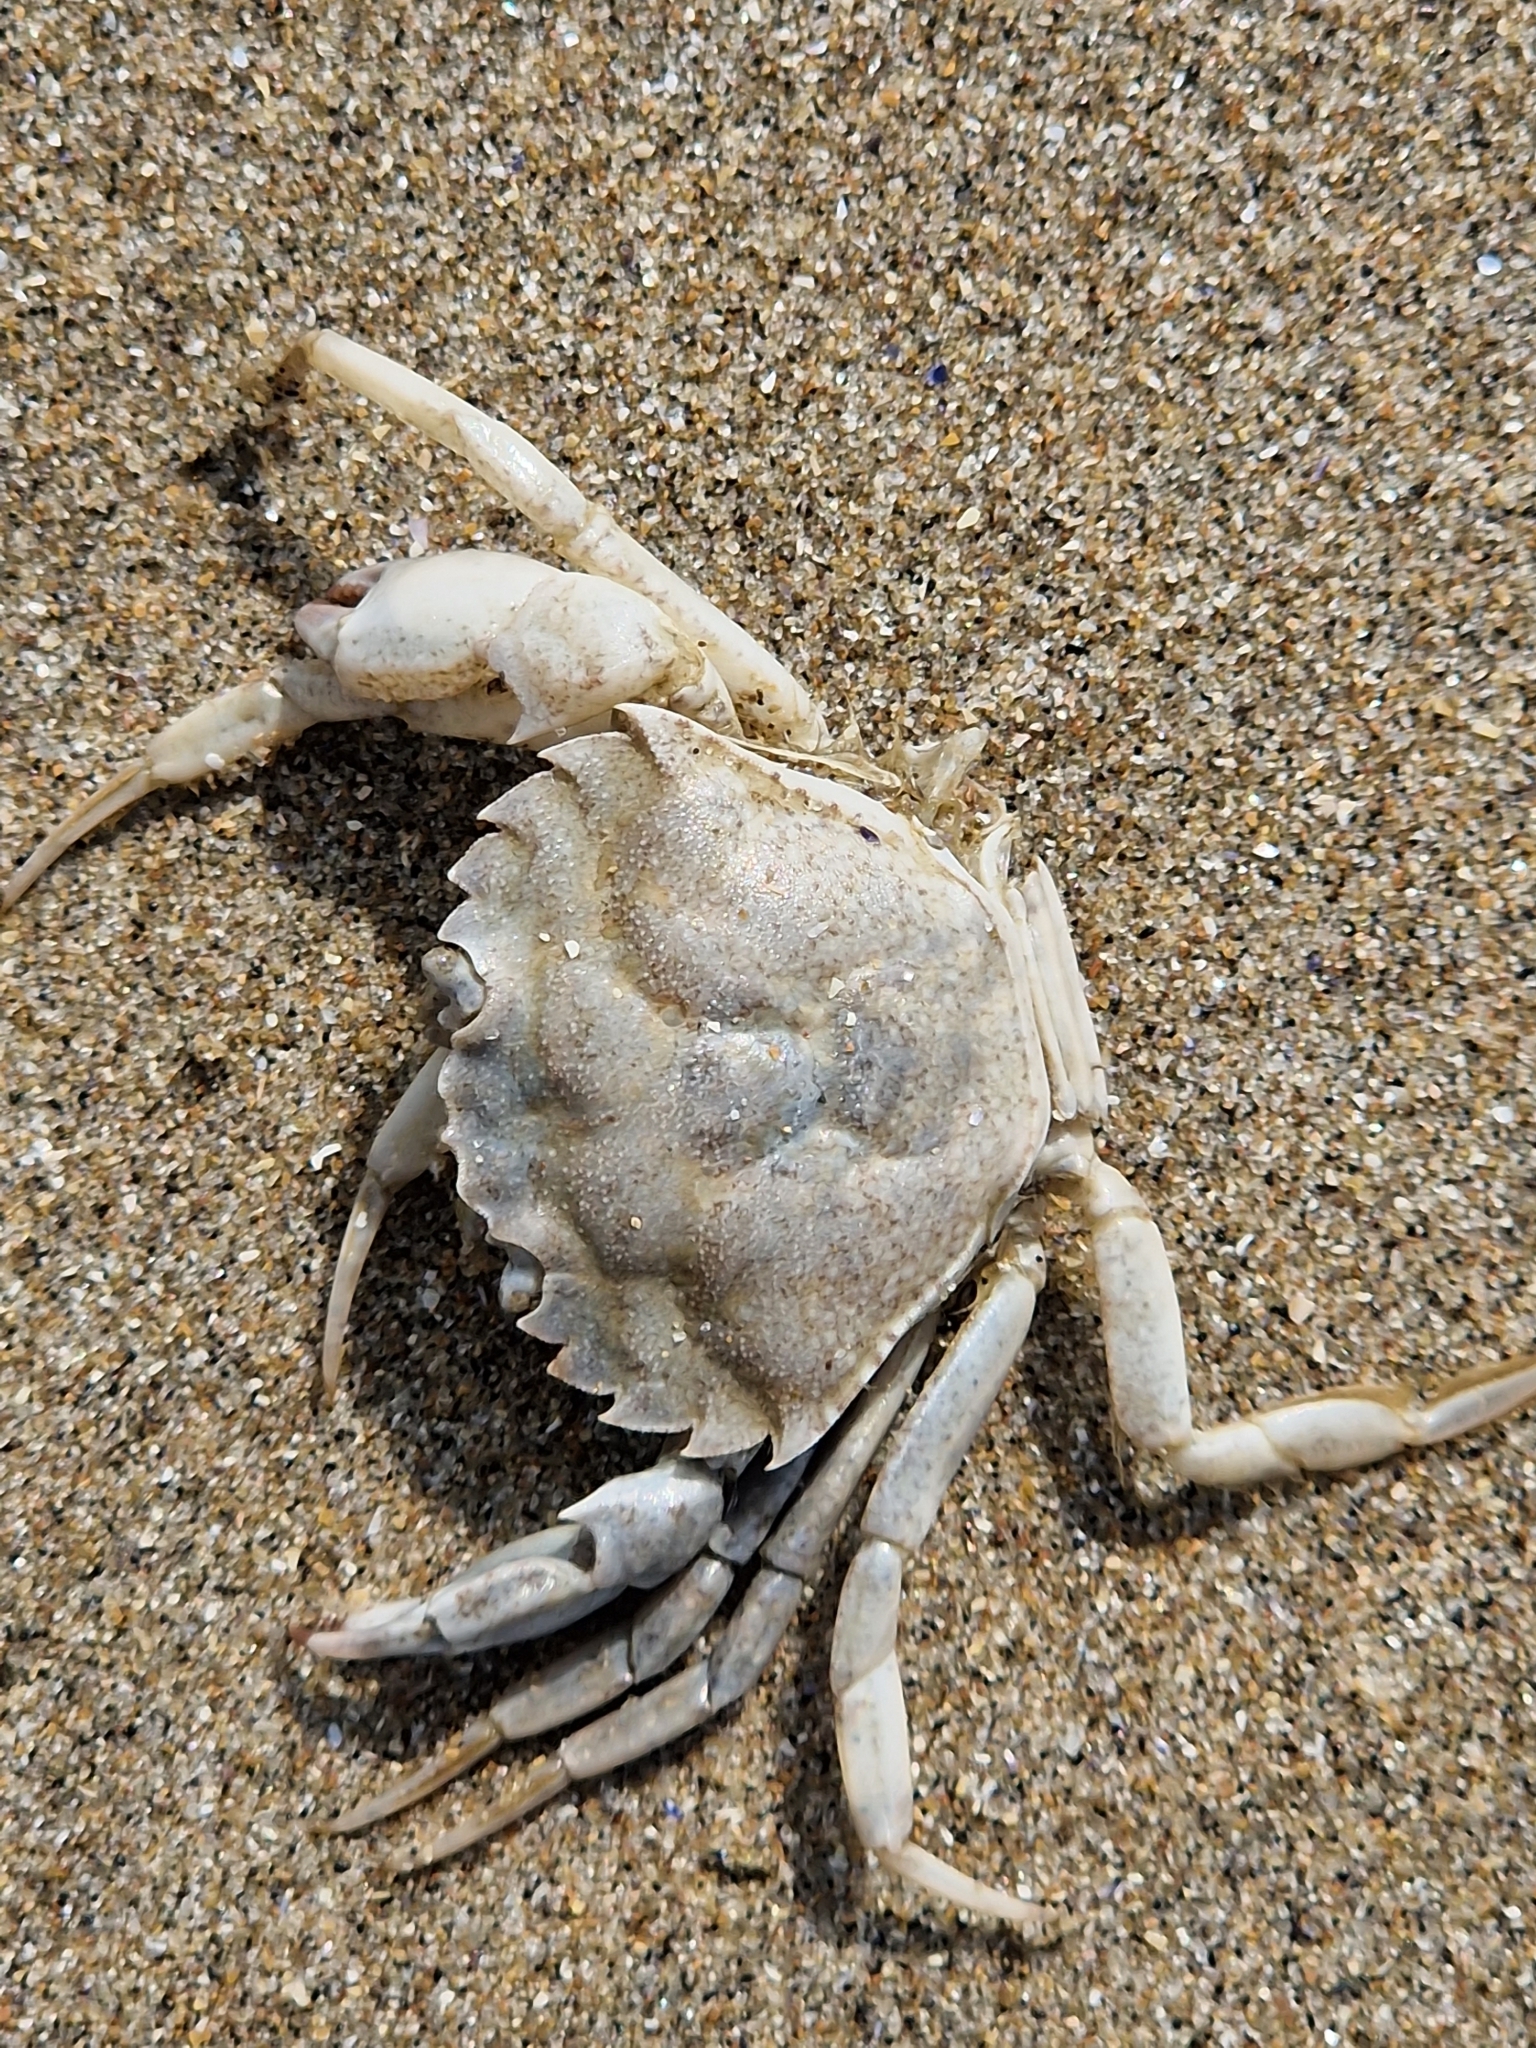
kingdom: Animalia
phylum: Arthropoda
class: Malacostraca
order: Decapoda
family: Carcinidae
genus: Carcinus
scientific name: Carcinus maenas
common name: European green crab
